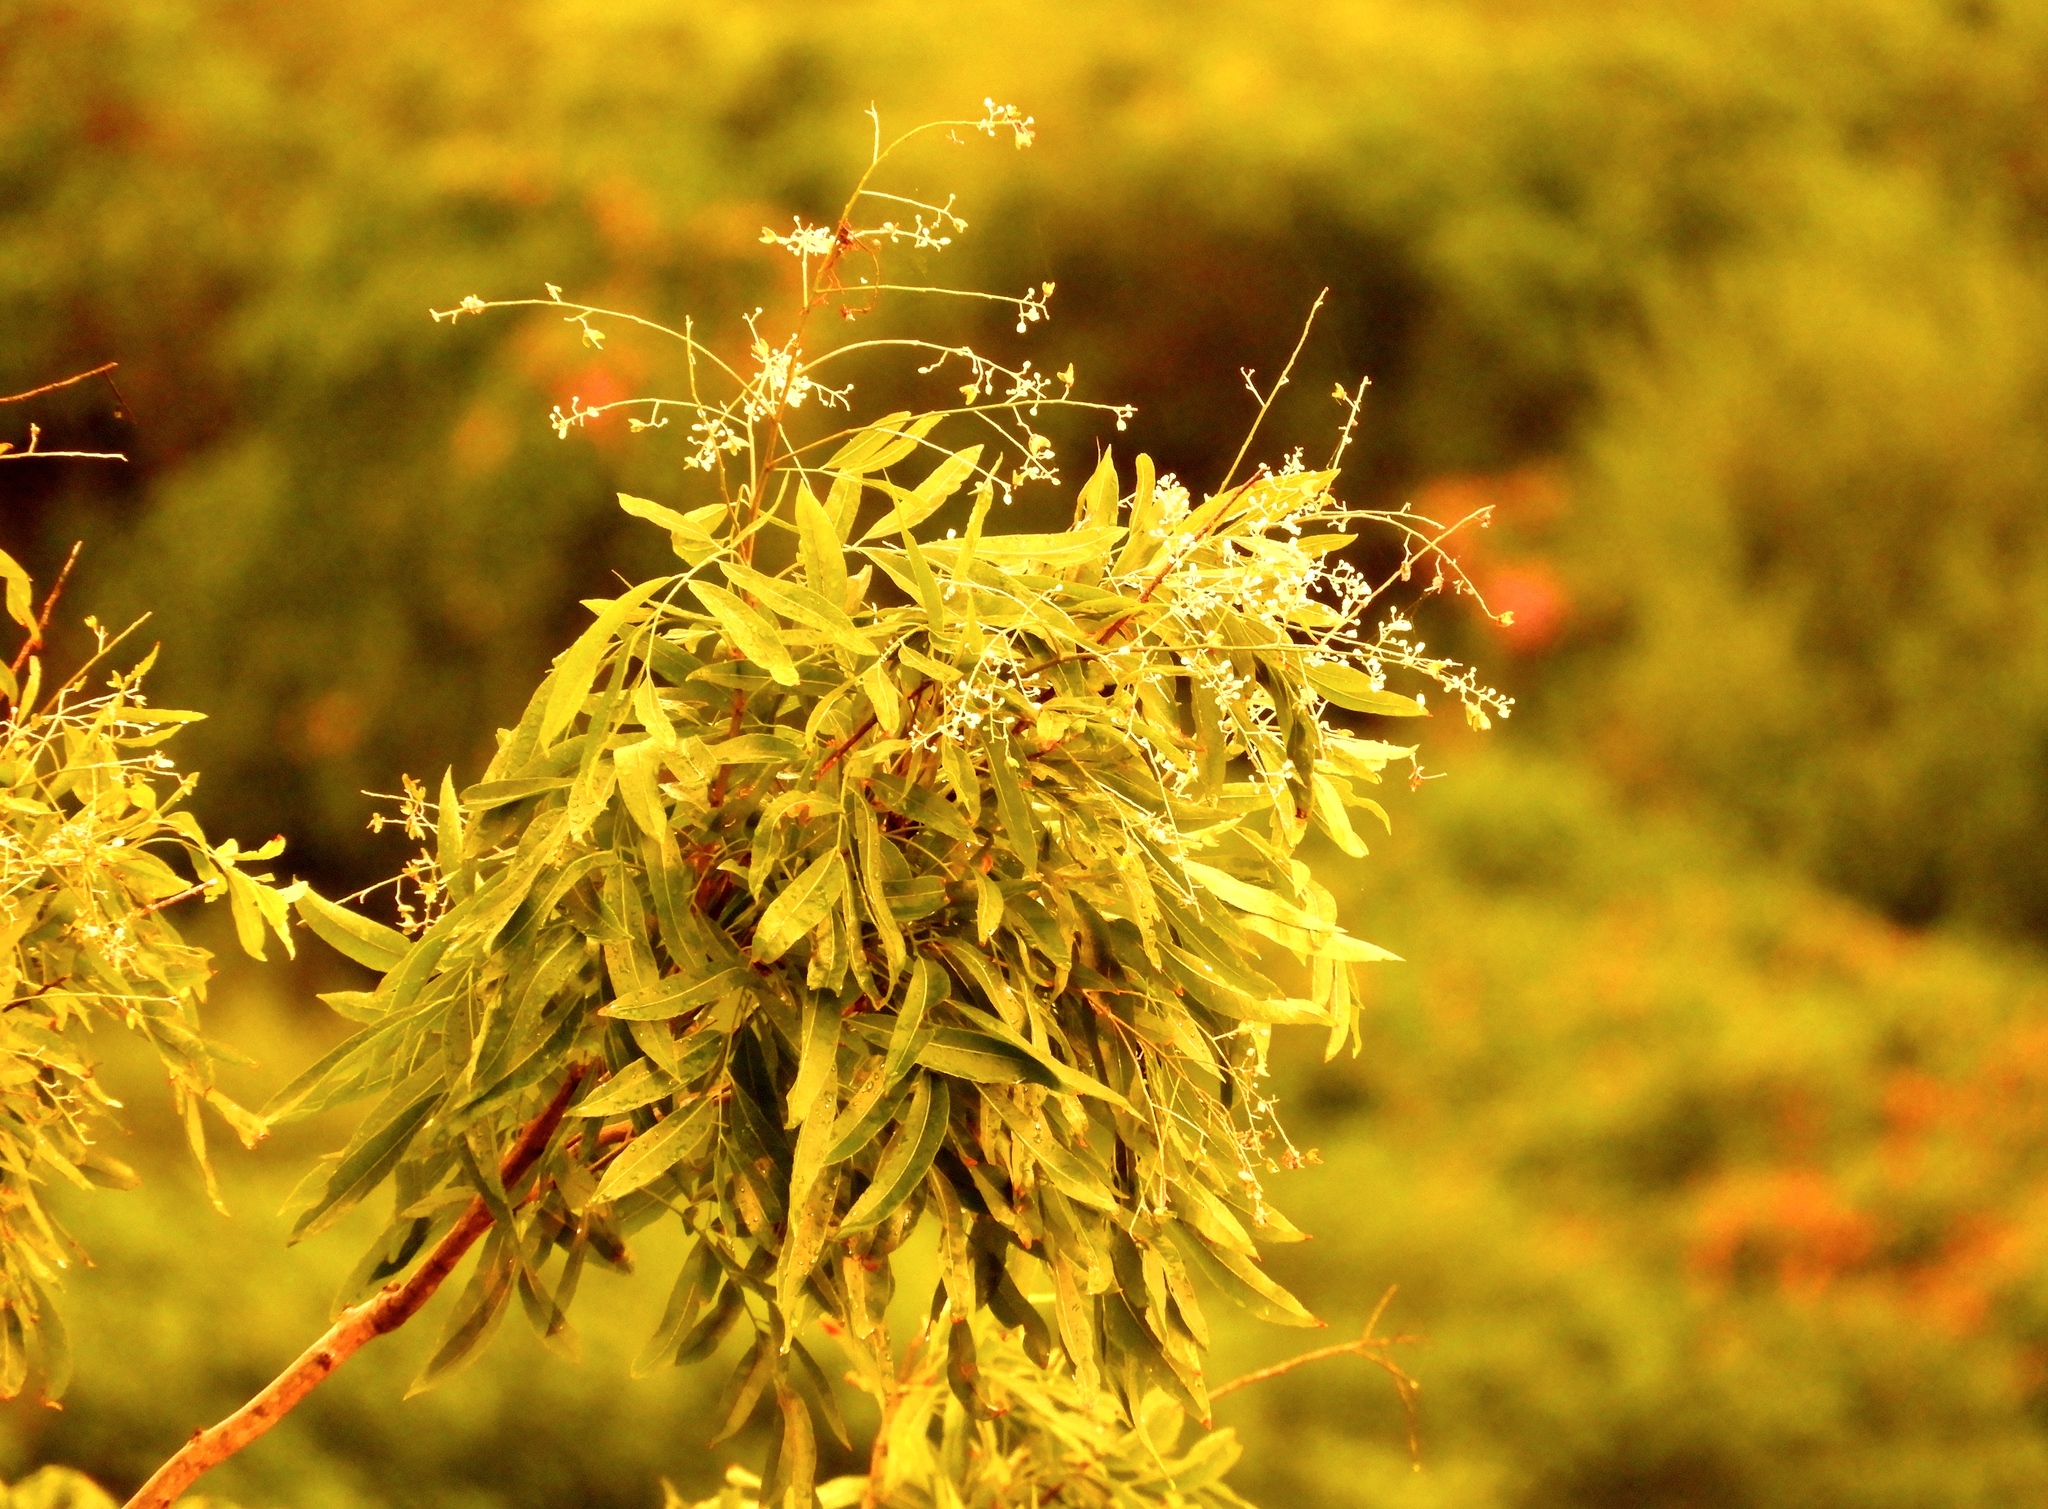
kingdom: Plantae
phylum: Tracheophyta
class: Magnoliopsida
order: Sapindales
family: Sapindaceae
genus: Thouinidium
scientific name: Thouinidium decandrum
